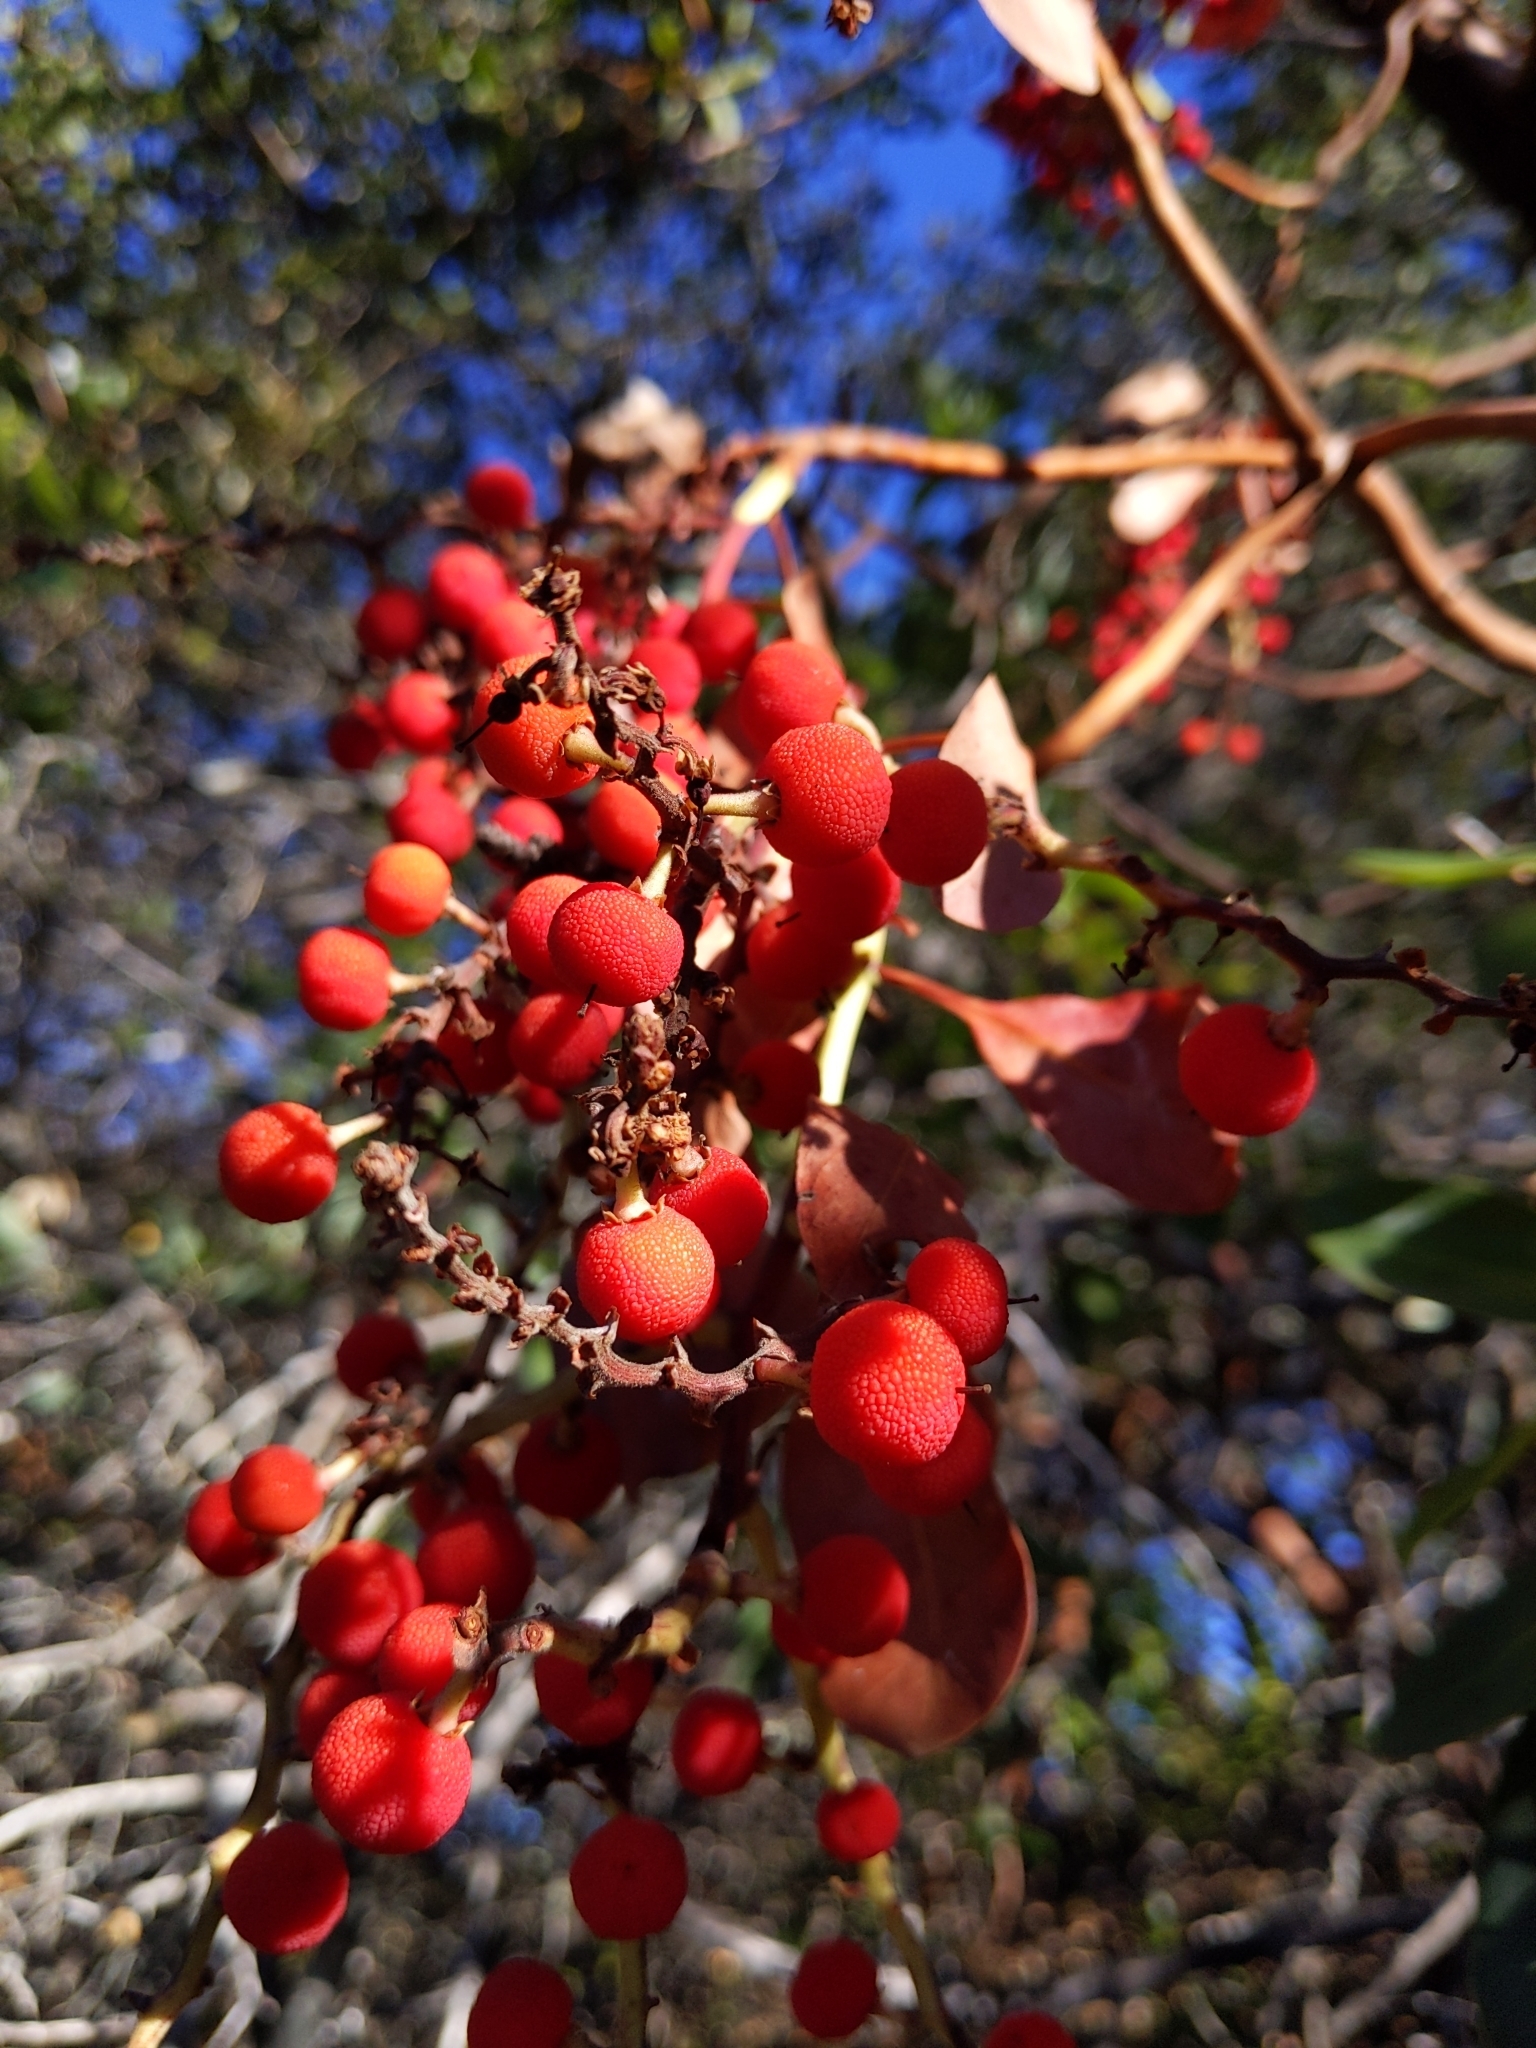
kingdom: Plantae
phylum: Tracheophyta
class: Magnoliopsida
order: Ericales
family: Ericaceae
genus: Arbutus
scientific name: Arbutus menziesii
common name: Pacific madrone
